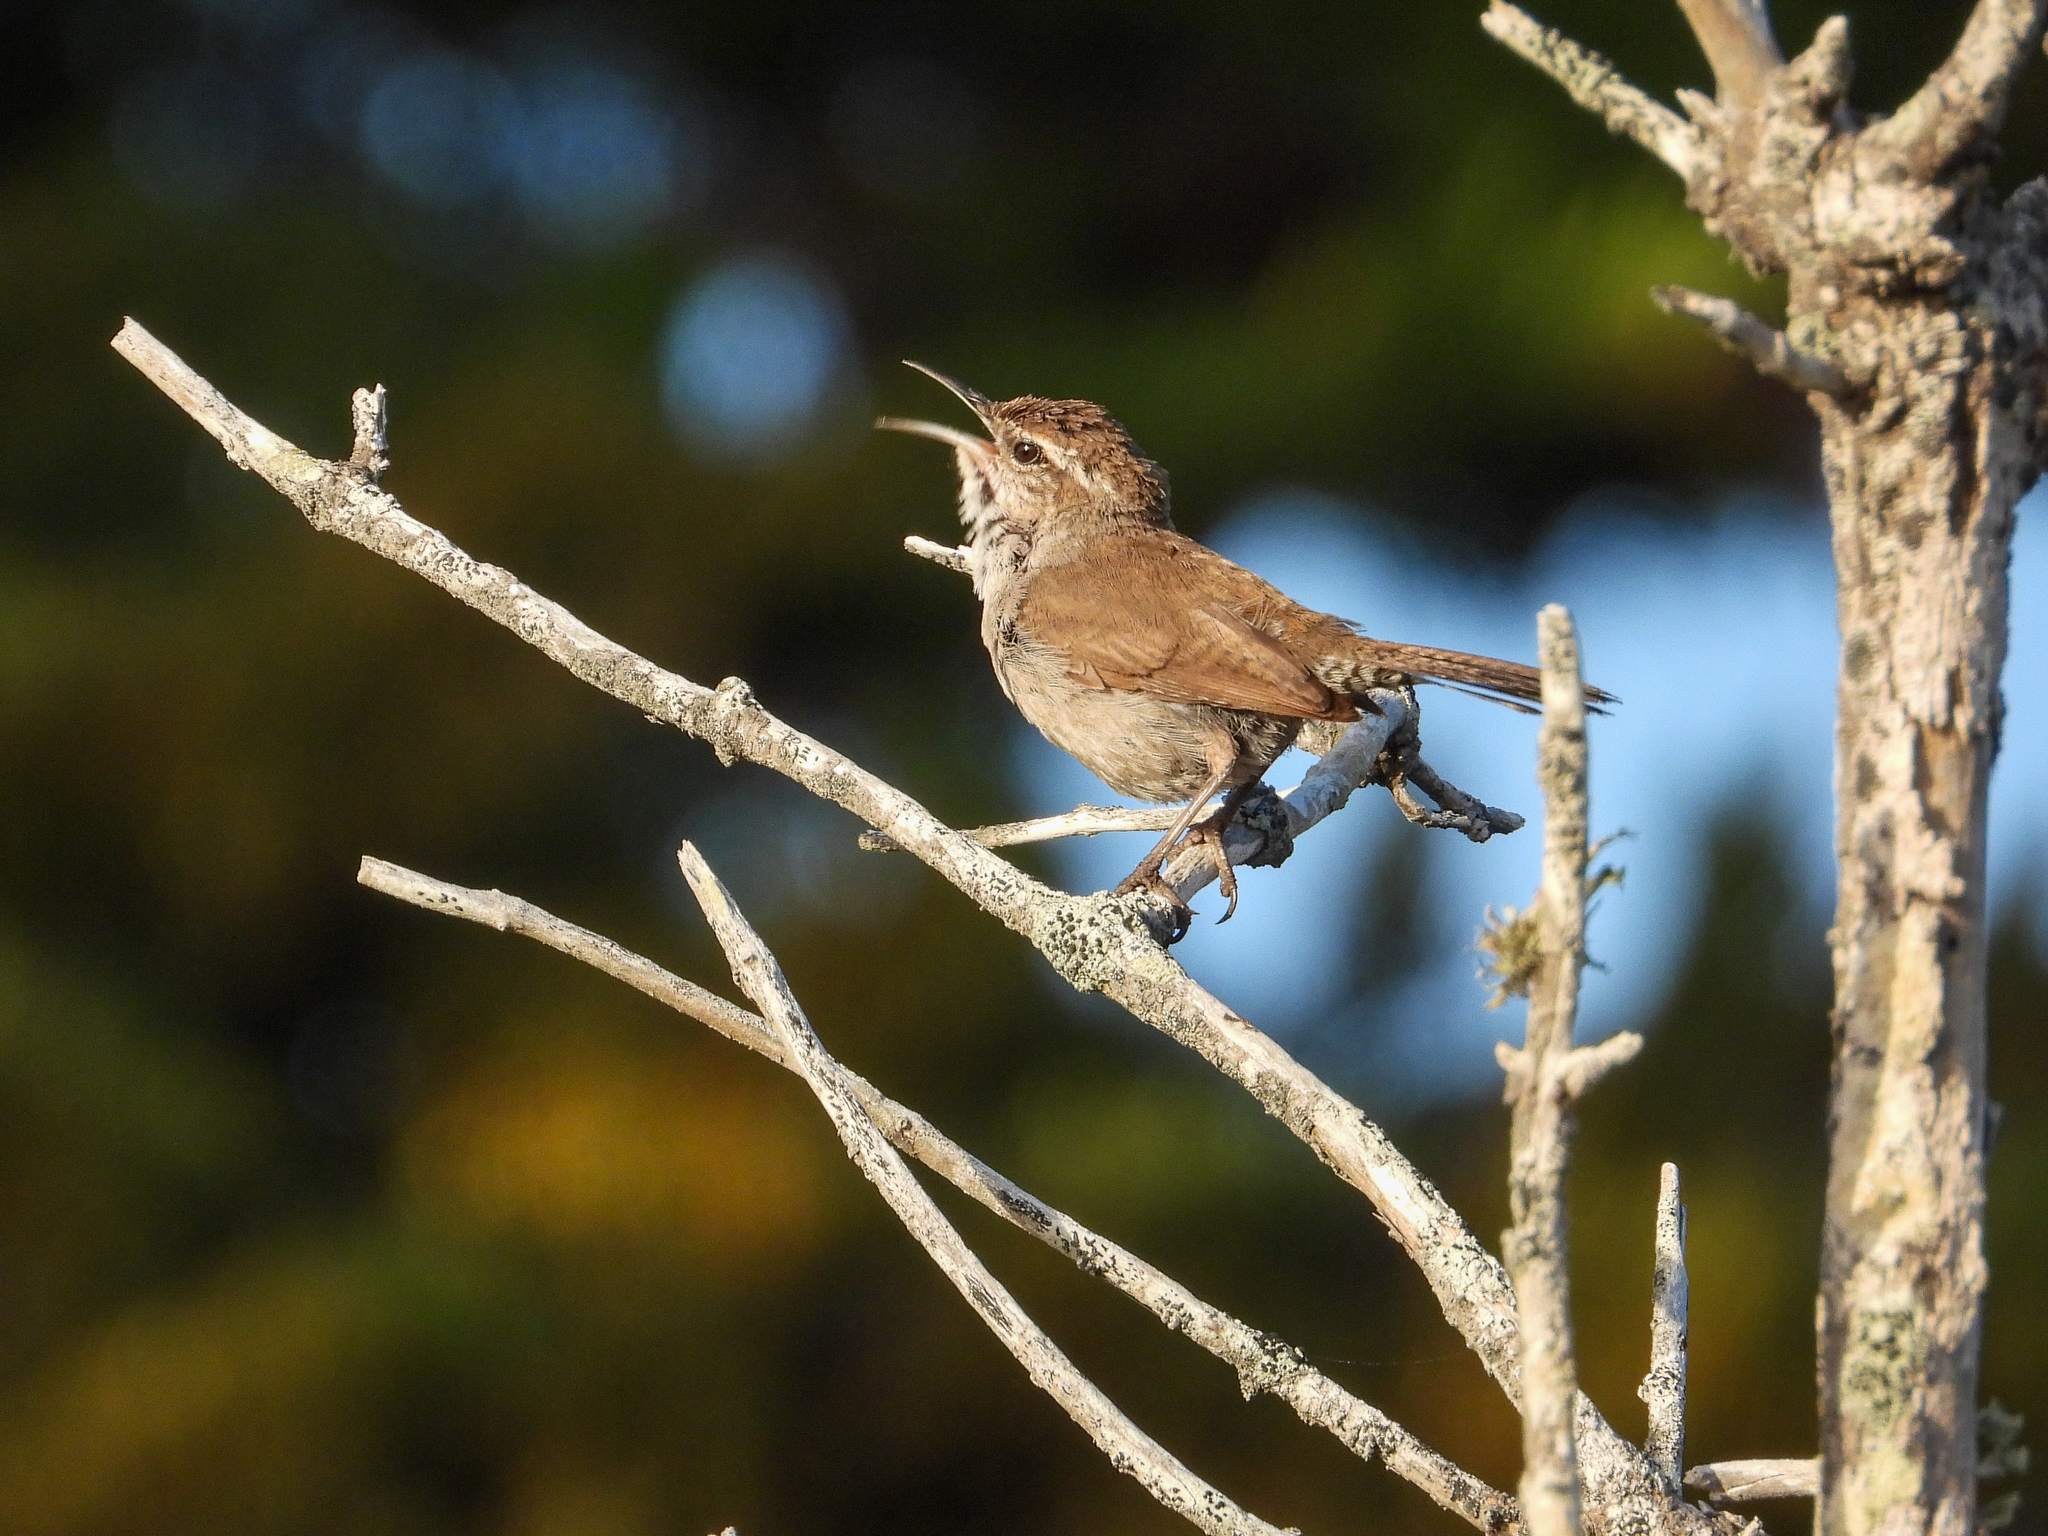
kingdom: Animalia
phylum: Chordata
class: Aves
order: Passeriformes
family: Troglodytidae
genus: Thryomanes
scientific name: Thryomanes bewickii
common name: Bewick's wren
